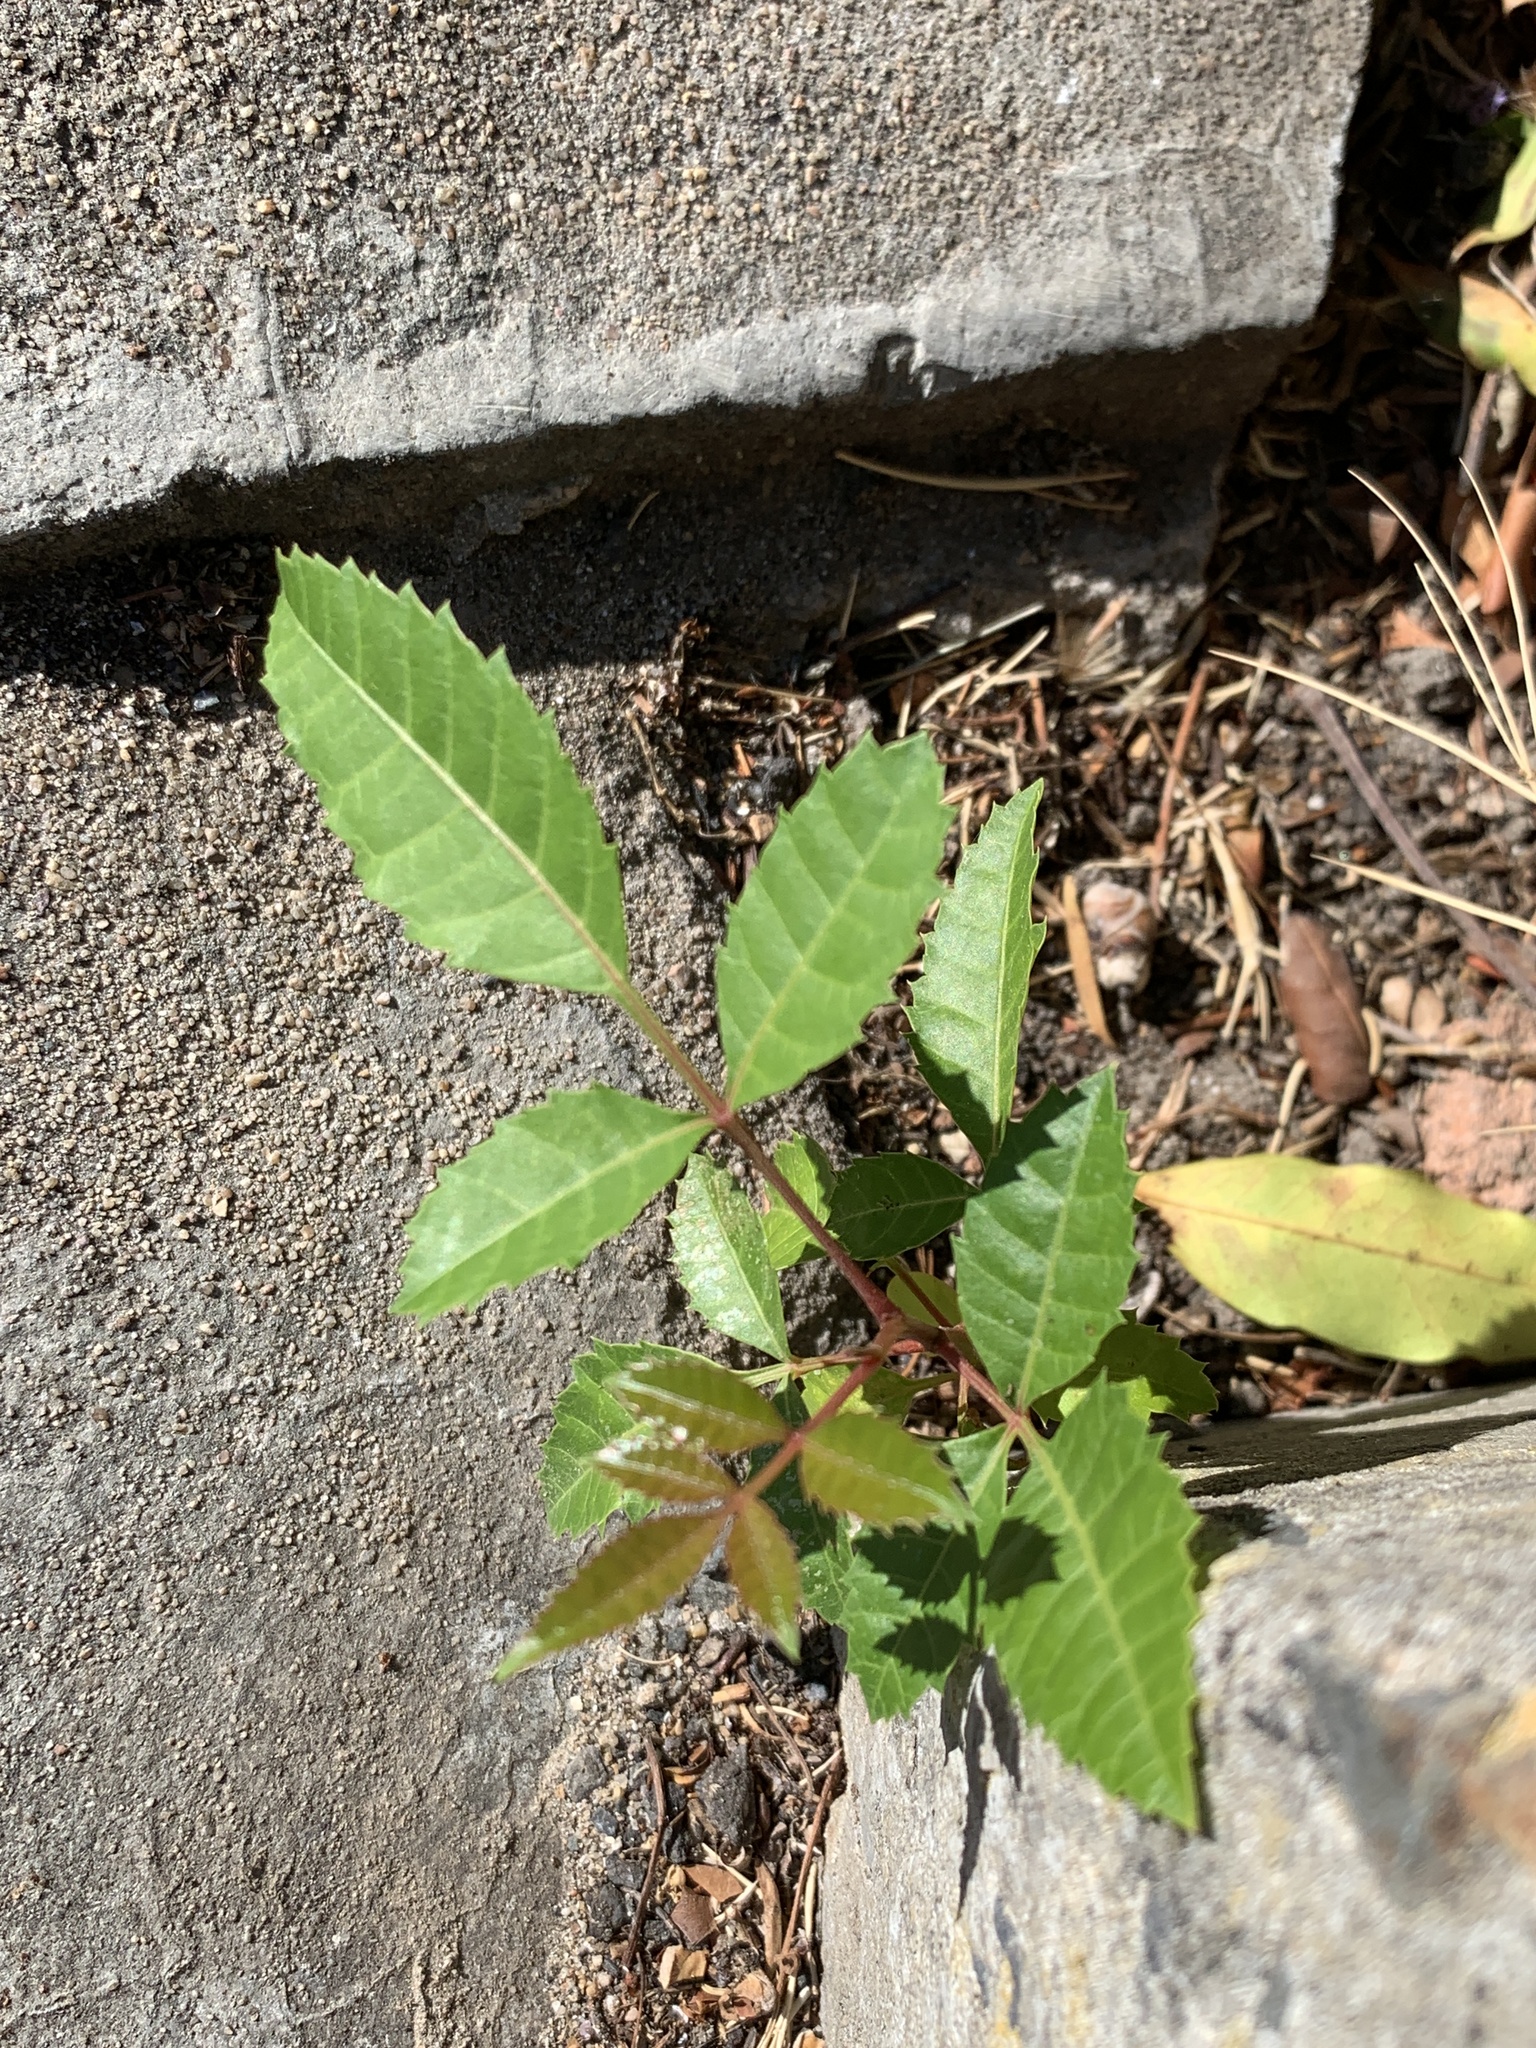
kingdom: Plantae
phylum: Tracheophyta
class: Magnoliopsida
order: Sapindales
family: Anacardiaceae
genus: Schinus
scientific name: Schinus terebinthifolia
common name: Brazilian peppertree
